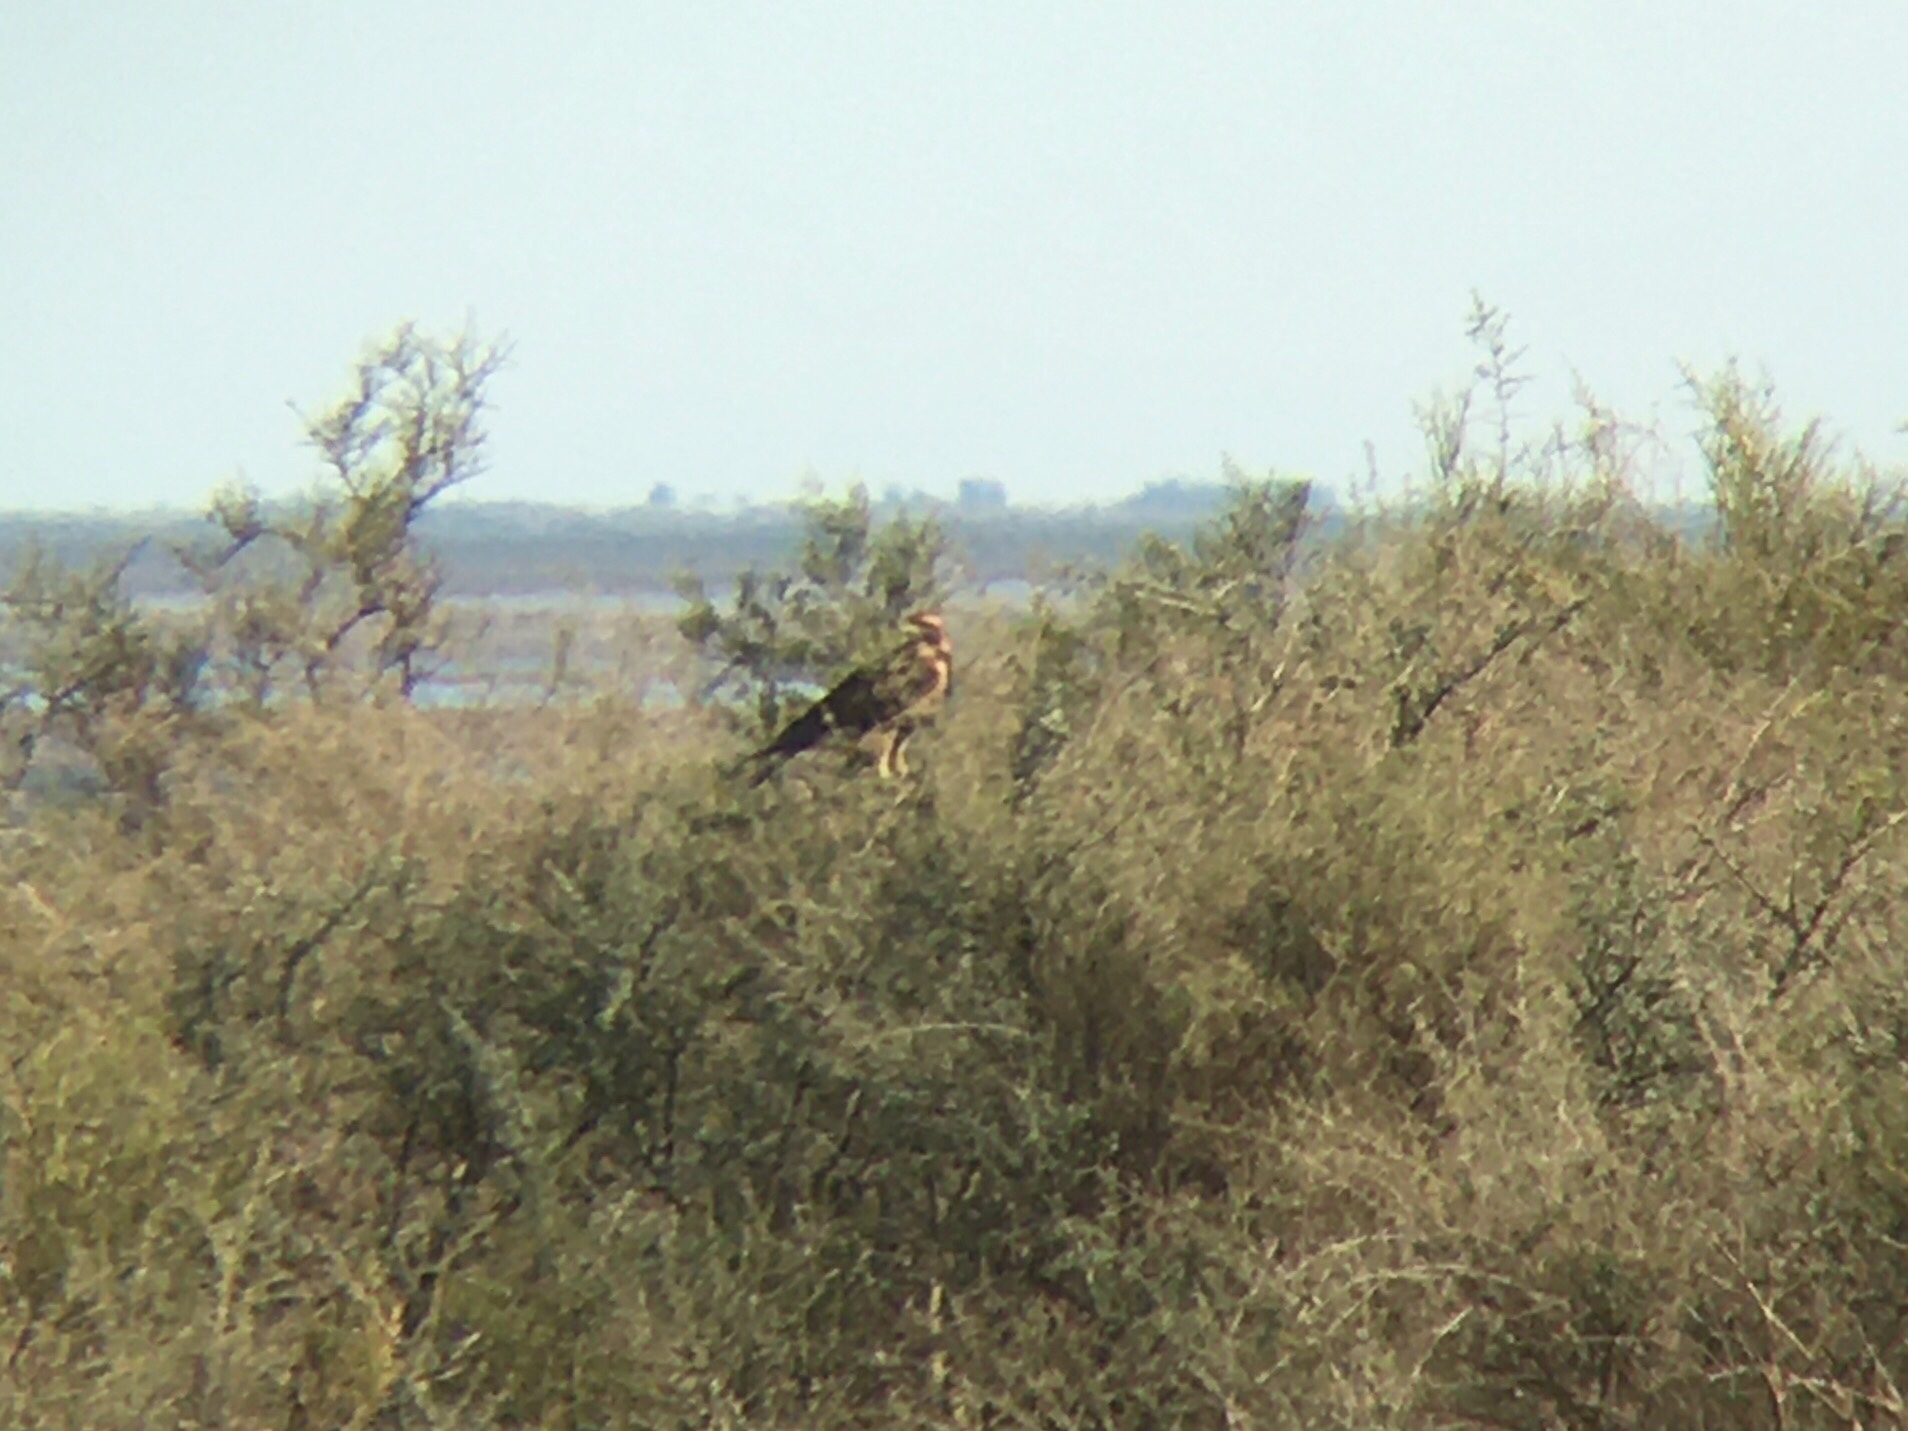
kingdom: Animalia
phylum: Chordata
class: Aves
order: Accipitriformes
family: Accipitridae
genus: Geranoaetus
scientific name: Geranoaetus melanoleucus
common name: Black-chested buzzard-eagle
